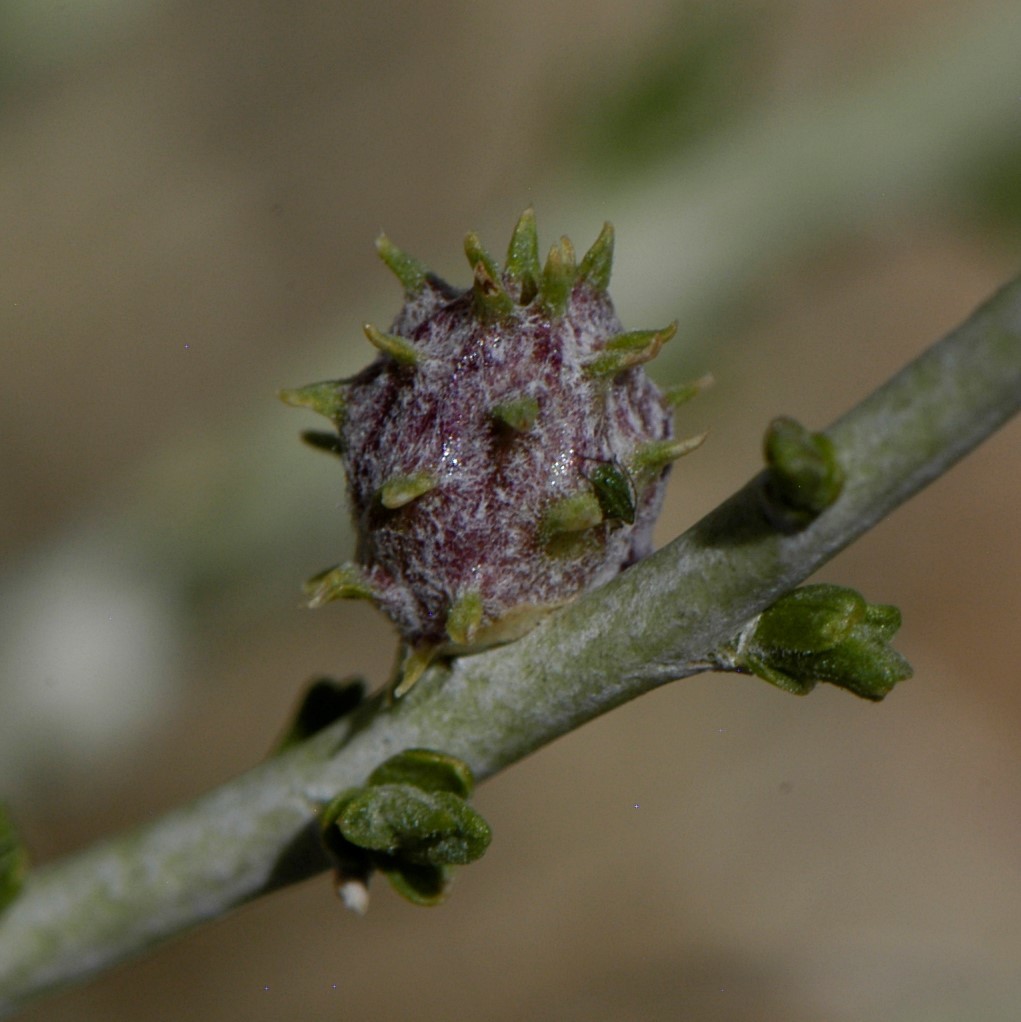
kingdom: Animalia
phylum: Arthropoda
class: Insecta
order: Diptera
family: Cecidomyiidae
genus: Rhopalomyia
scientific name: Rhopalomyia utahensis
